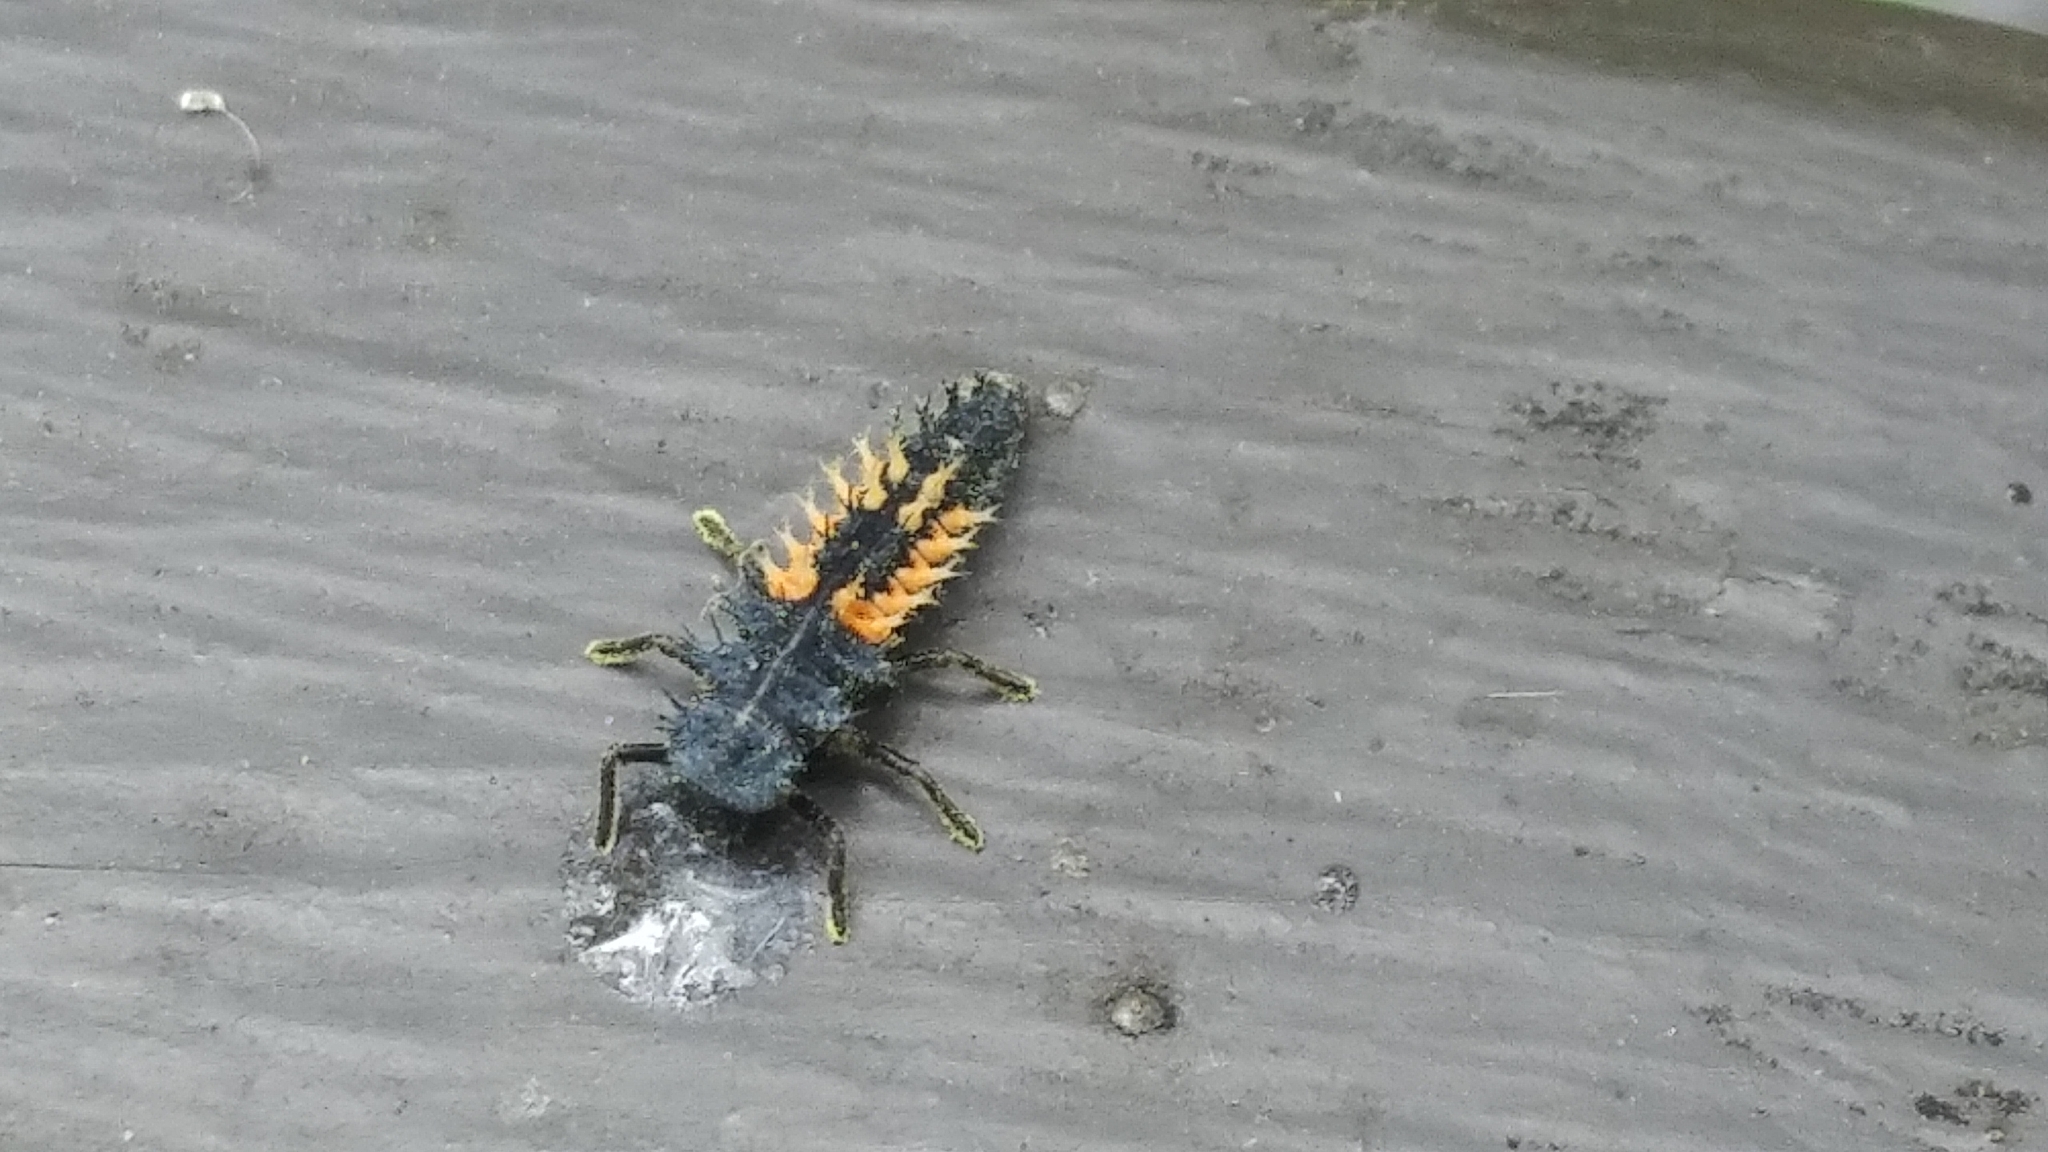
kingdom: Animalia
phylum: Arthropoda
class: Insecta
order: Coleoptera
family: Coccinellidae
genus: Harmonia
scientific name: Harmonia axyridis
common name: Harlequin ladybird
